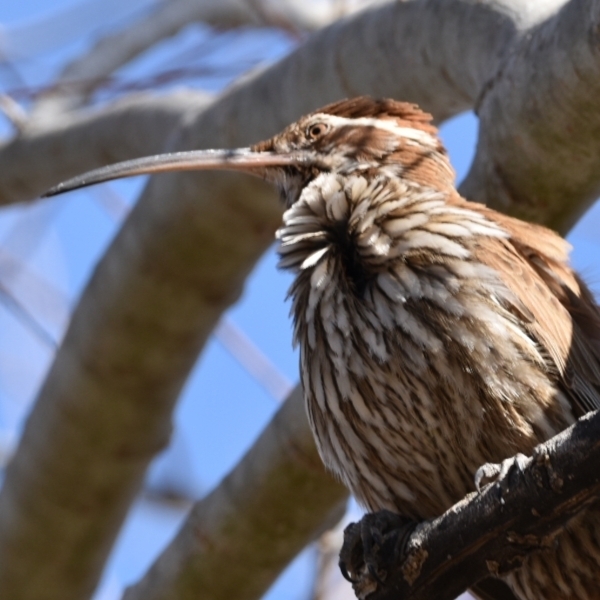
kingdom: Animalia
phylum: Chordata
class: Aves
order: Passeriformes
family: Furnariidae
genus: Drymornis
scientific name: Drymornis bridgesii
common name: Scimitar-billed woodcreeper
